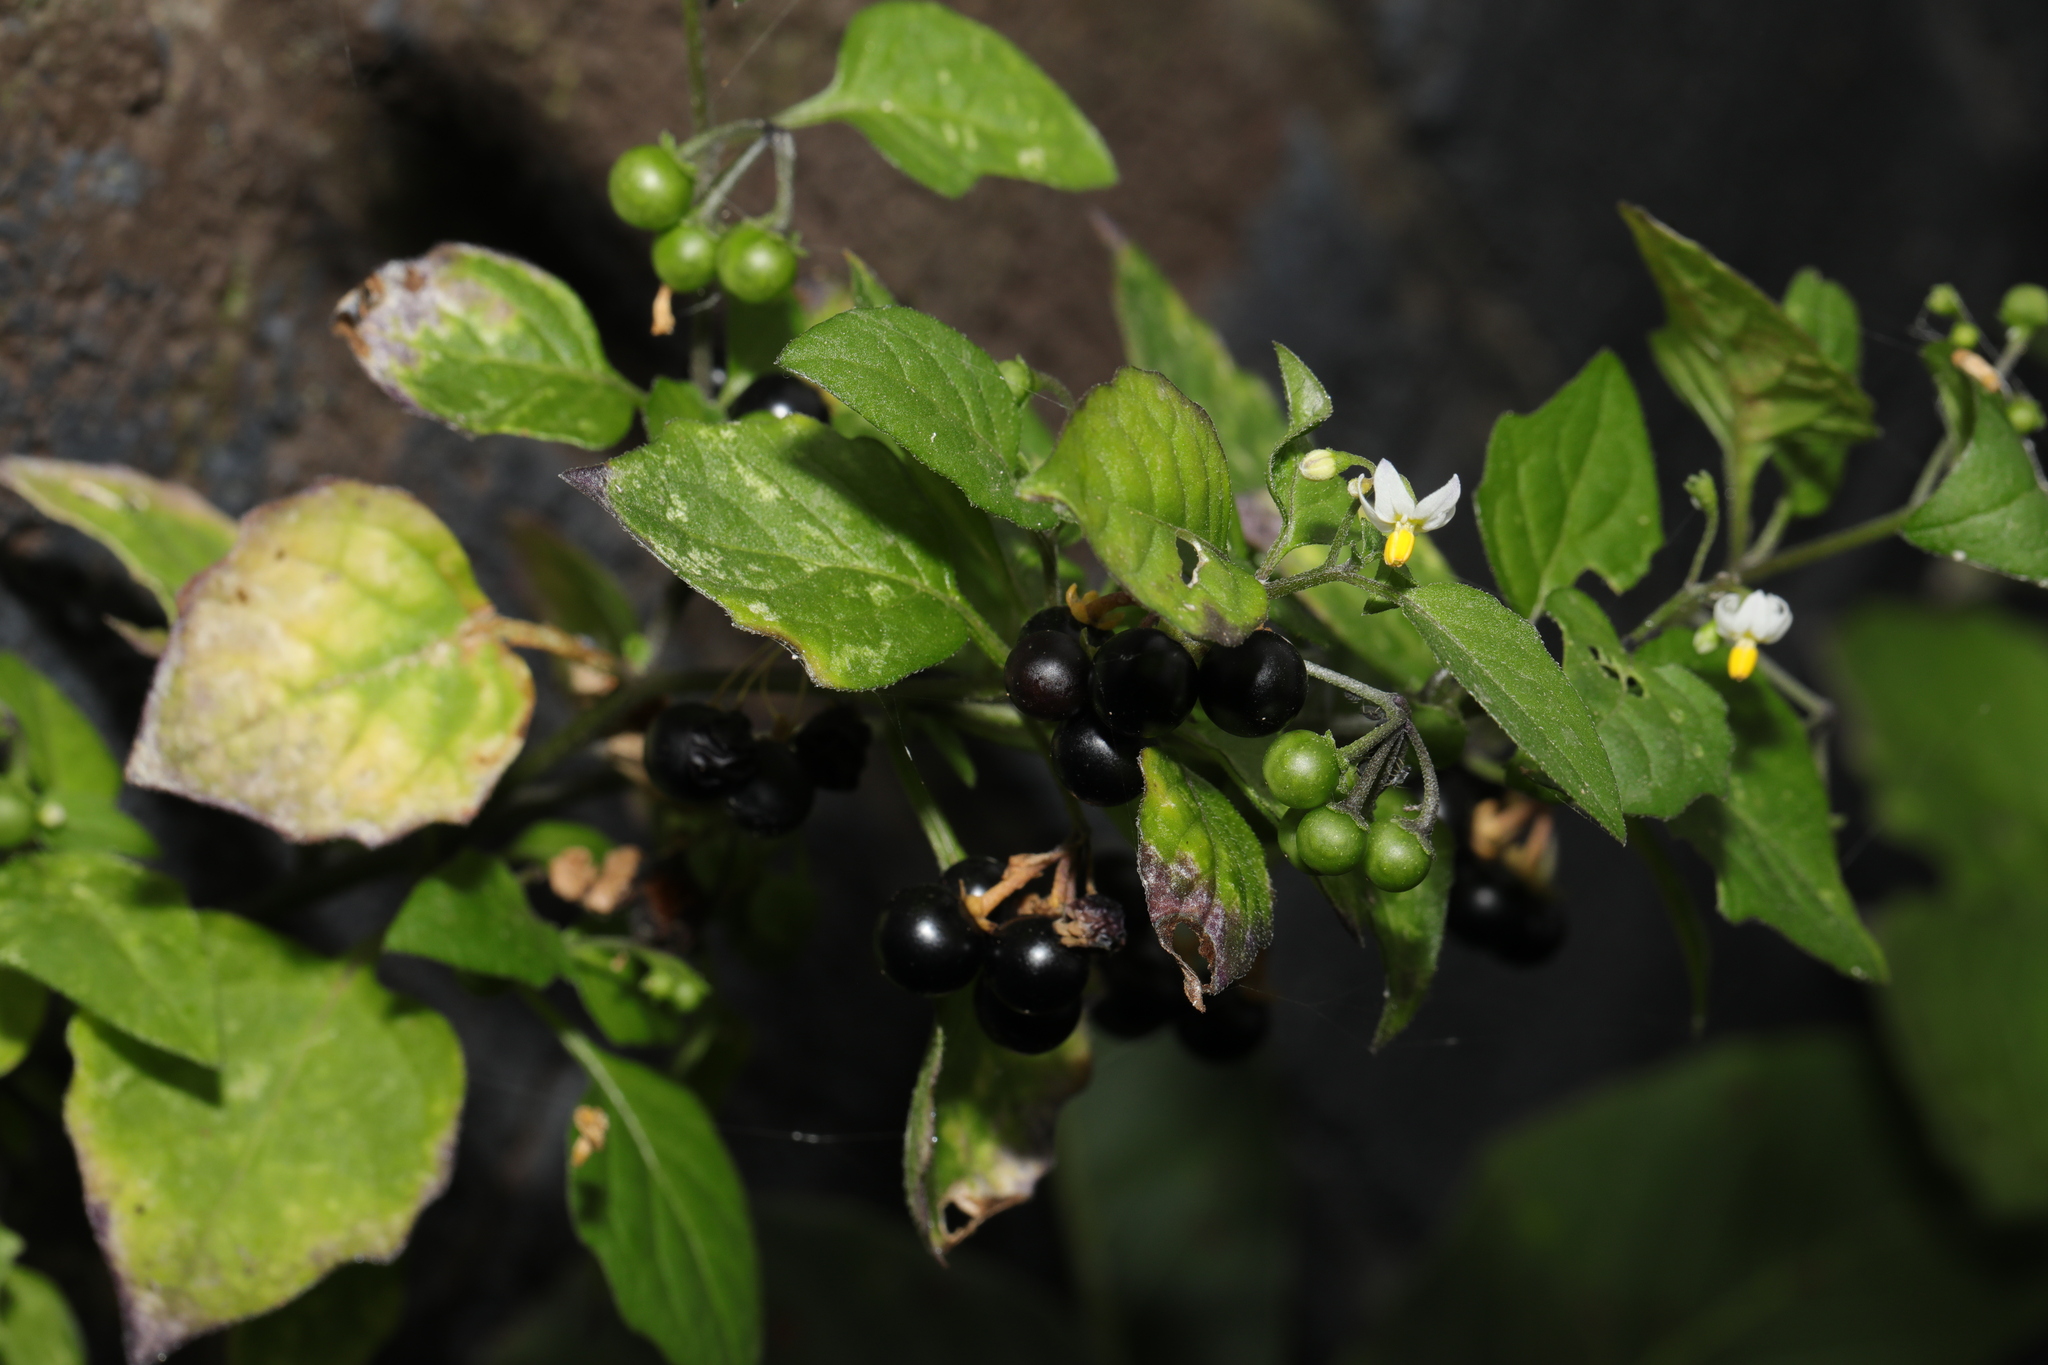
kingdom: Plantae
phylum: Tracheophyta
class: Magnoliopsida
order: Solanales
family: Solanaceae
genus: Solanum
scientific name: Solanum nigrum
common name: Black nightshade
